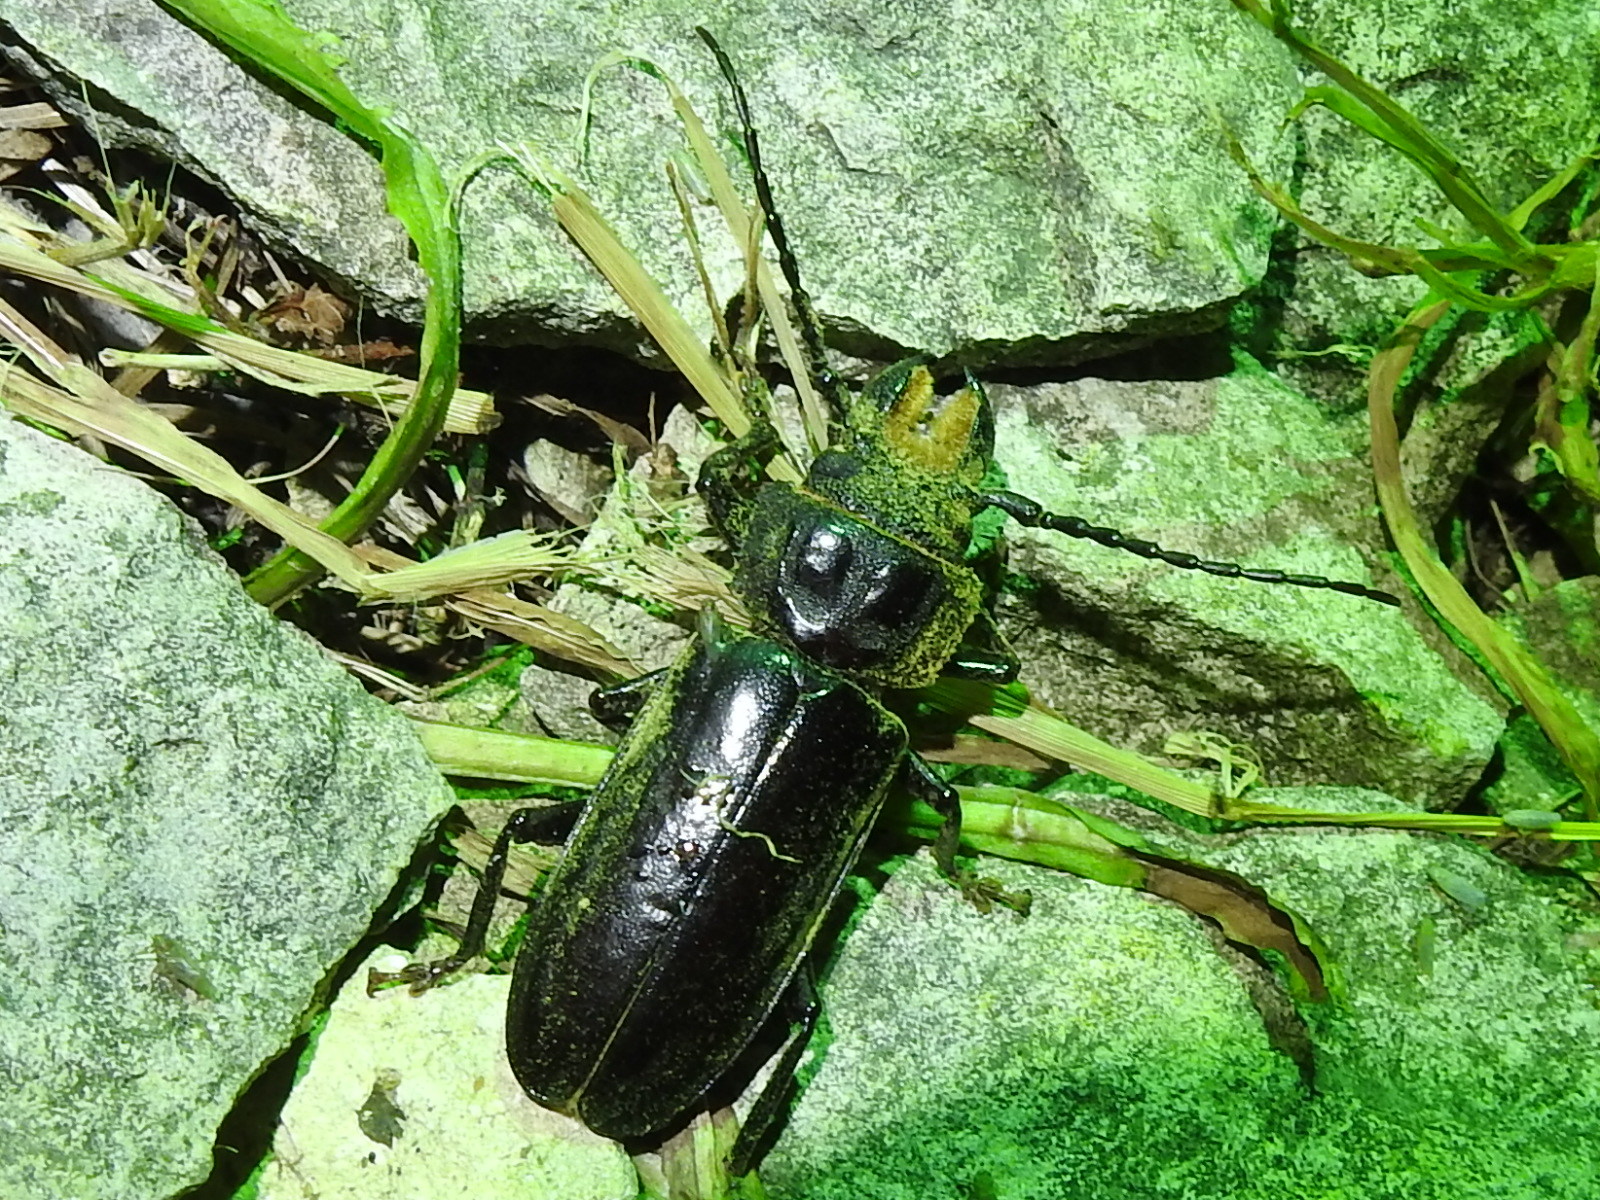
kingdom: Animalia
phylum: Arthropoda
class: Insecta
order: Coleoptera
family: Cerambycidae
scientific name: Cerambycidae
